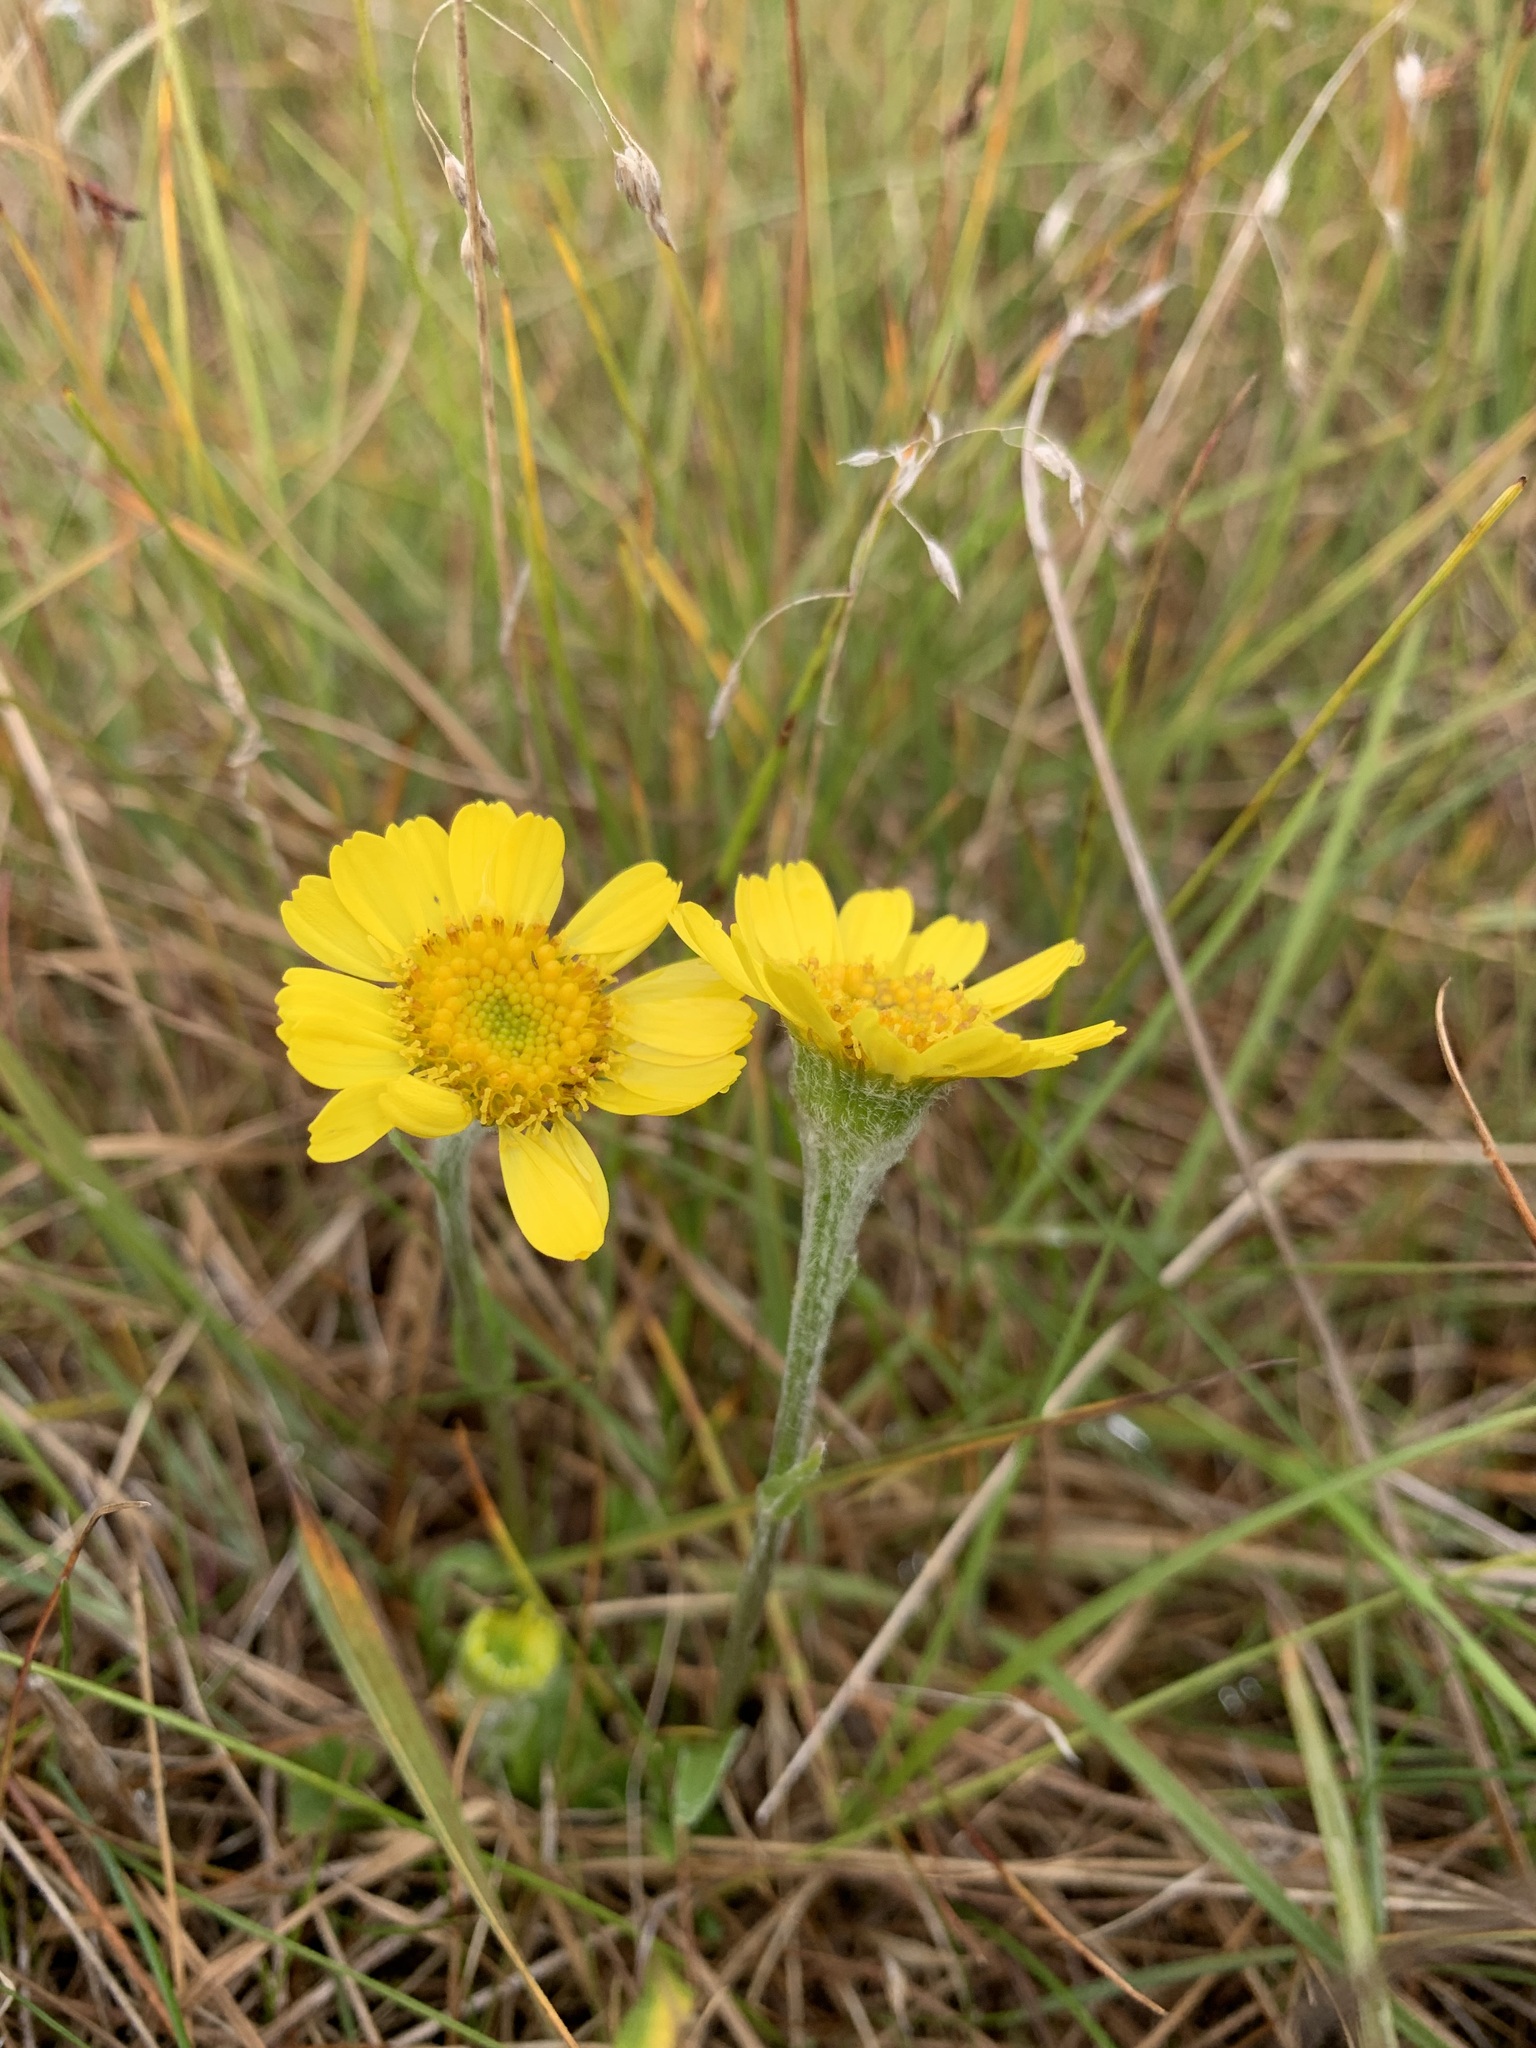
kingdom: Plantae
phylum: Tracheophyta
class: Magnoliopsida
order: Asterales
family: Asteraceae
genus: Tephroseris
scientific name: Tephroseris integrifolia
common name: Field fleawort
